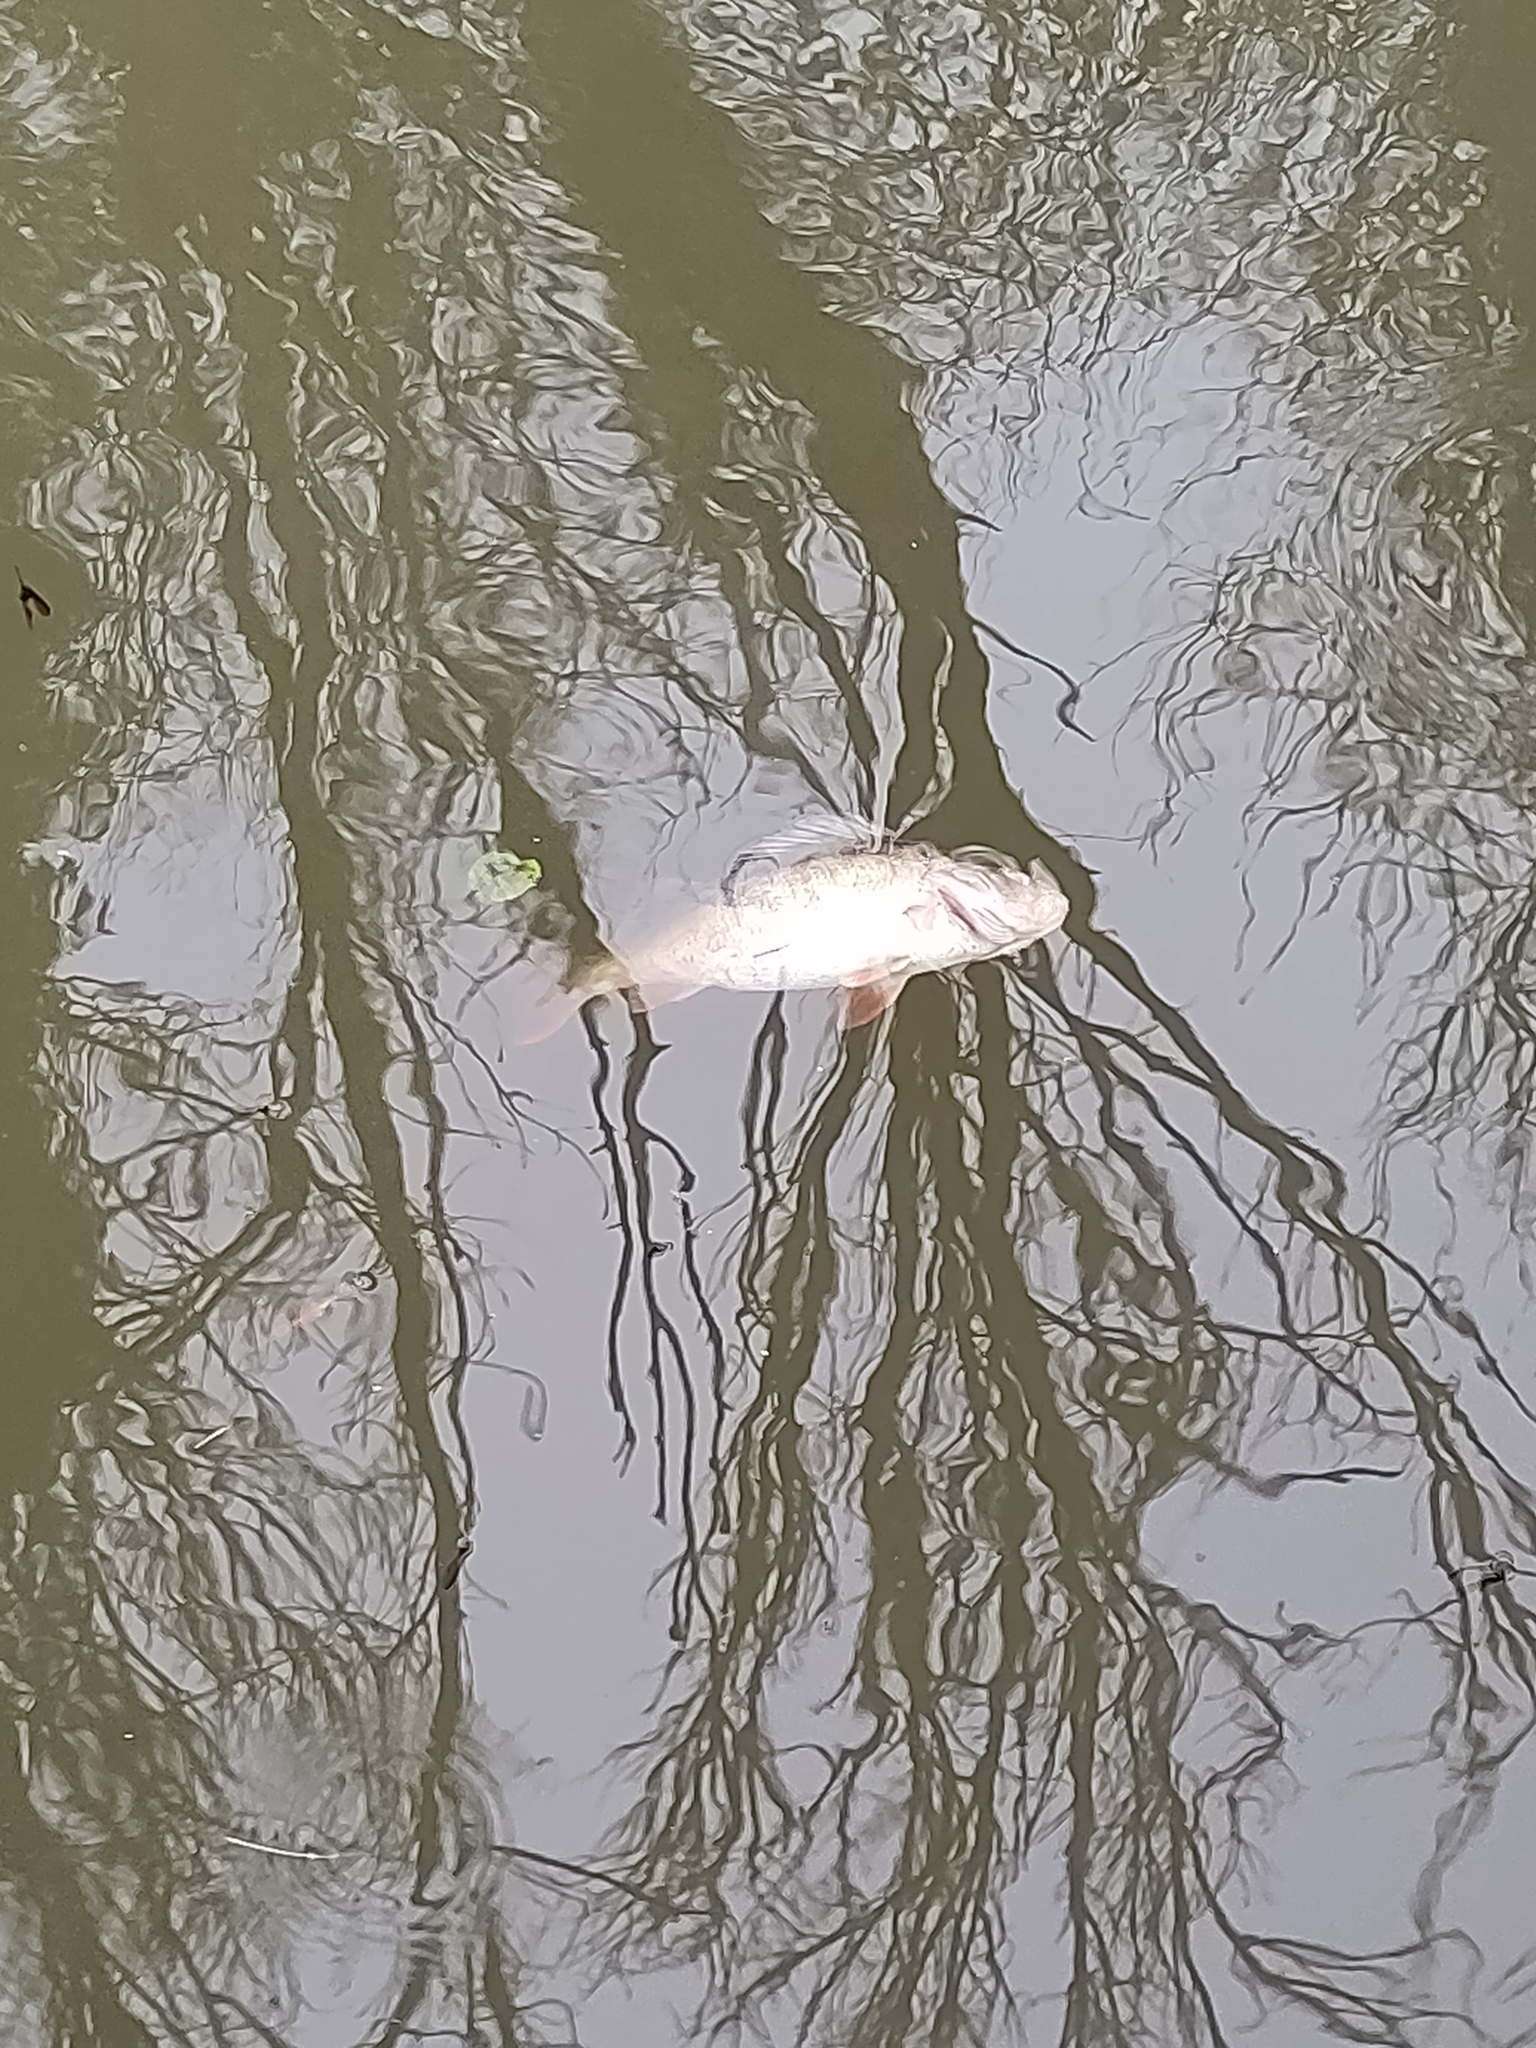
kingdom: Animalia
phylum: Chordata
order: Perciformes
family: Percidae
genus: Perca
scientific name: Perca fluviatilis
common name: Perch
